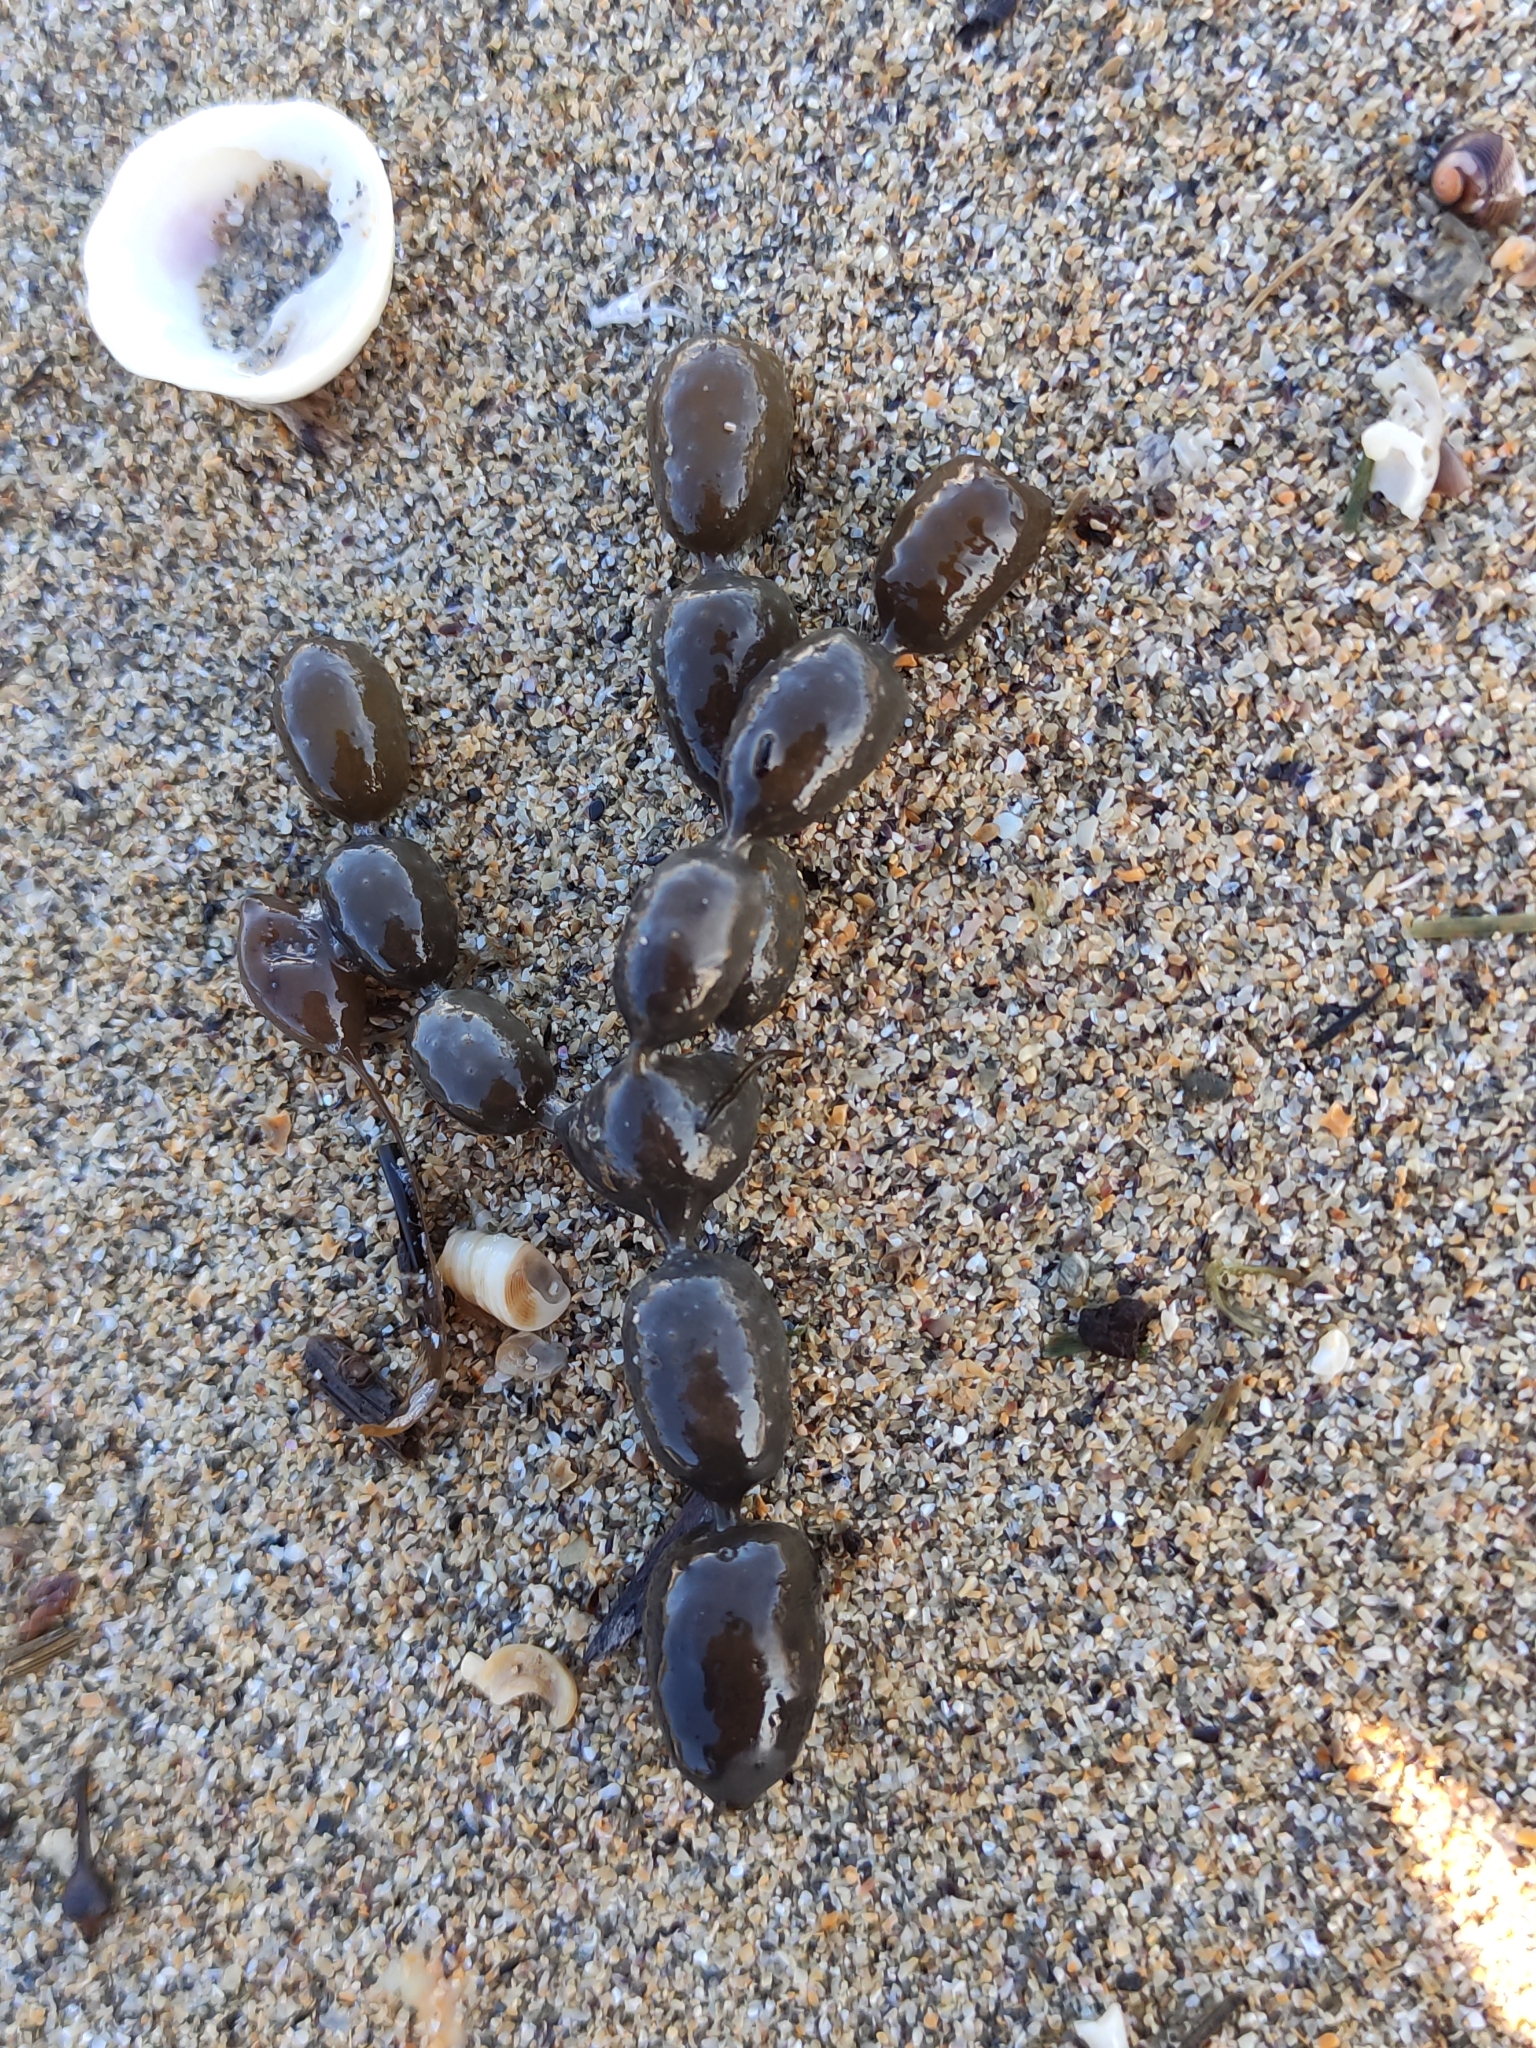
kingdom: Chromista
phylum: Ochrophyta
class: Phaeophyceae
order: Fucales
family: Hormosiraceae
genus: Hormosira
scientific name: Hormosira banksii
